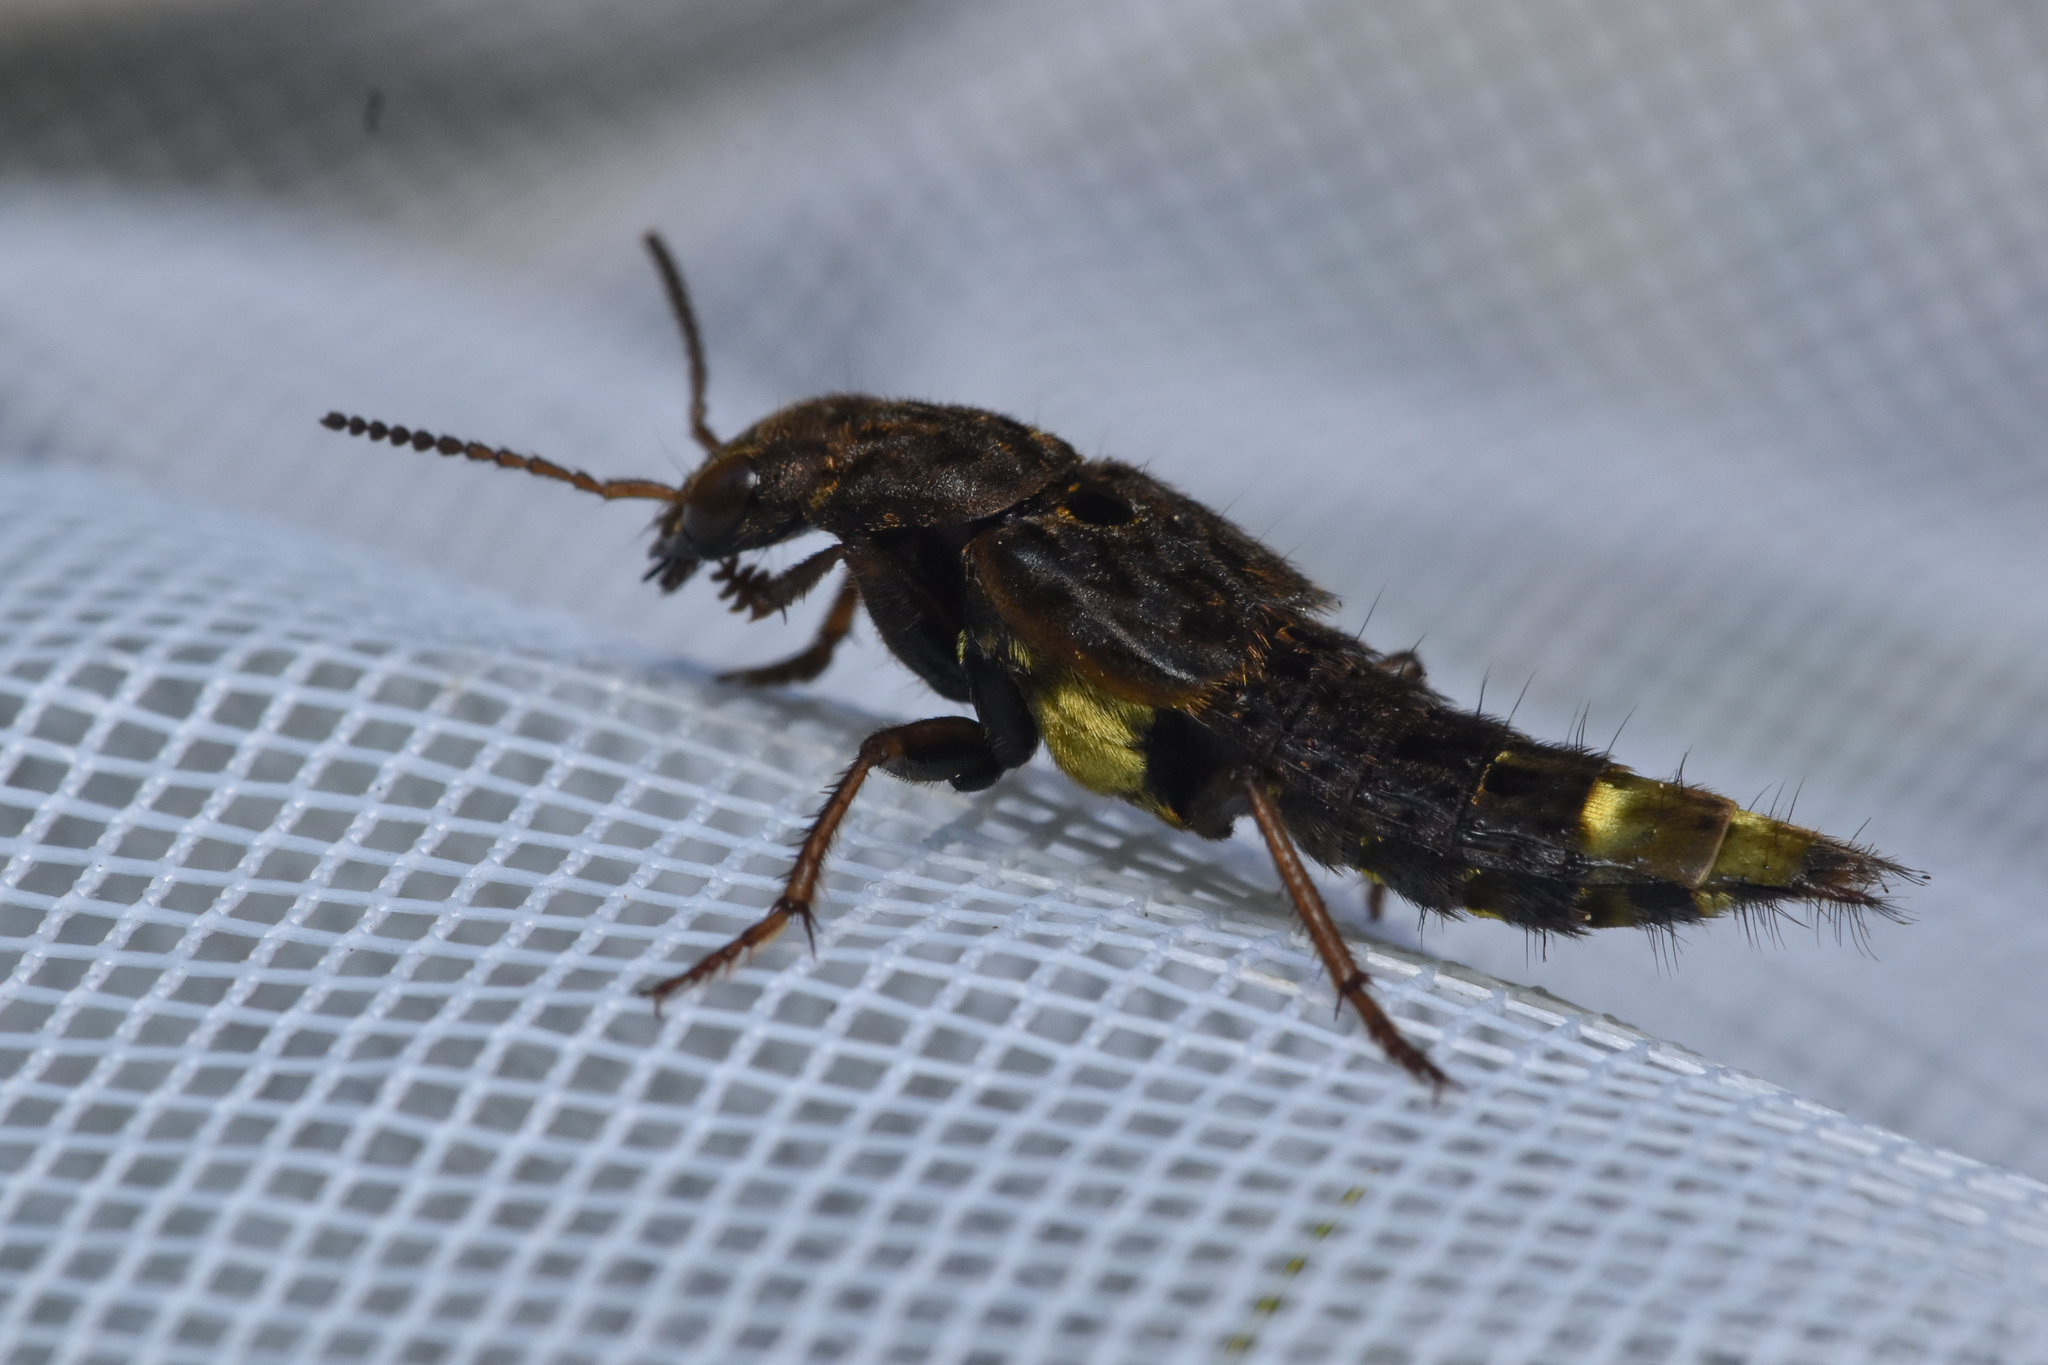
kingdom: Animalia
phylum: Arthropoda
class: Insecta
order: Coleoptera
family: Staphylinidae
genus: Ontholestes
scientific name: Ontholestes cingulatus
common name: Gold-and-brown rove beetle
